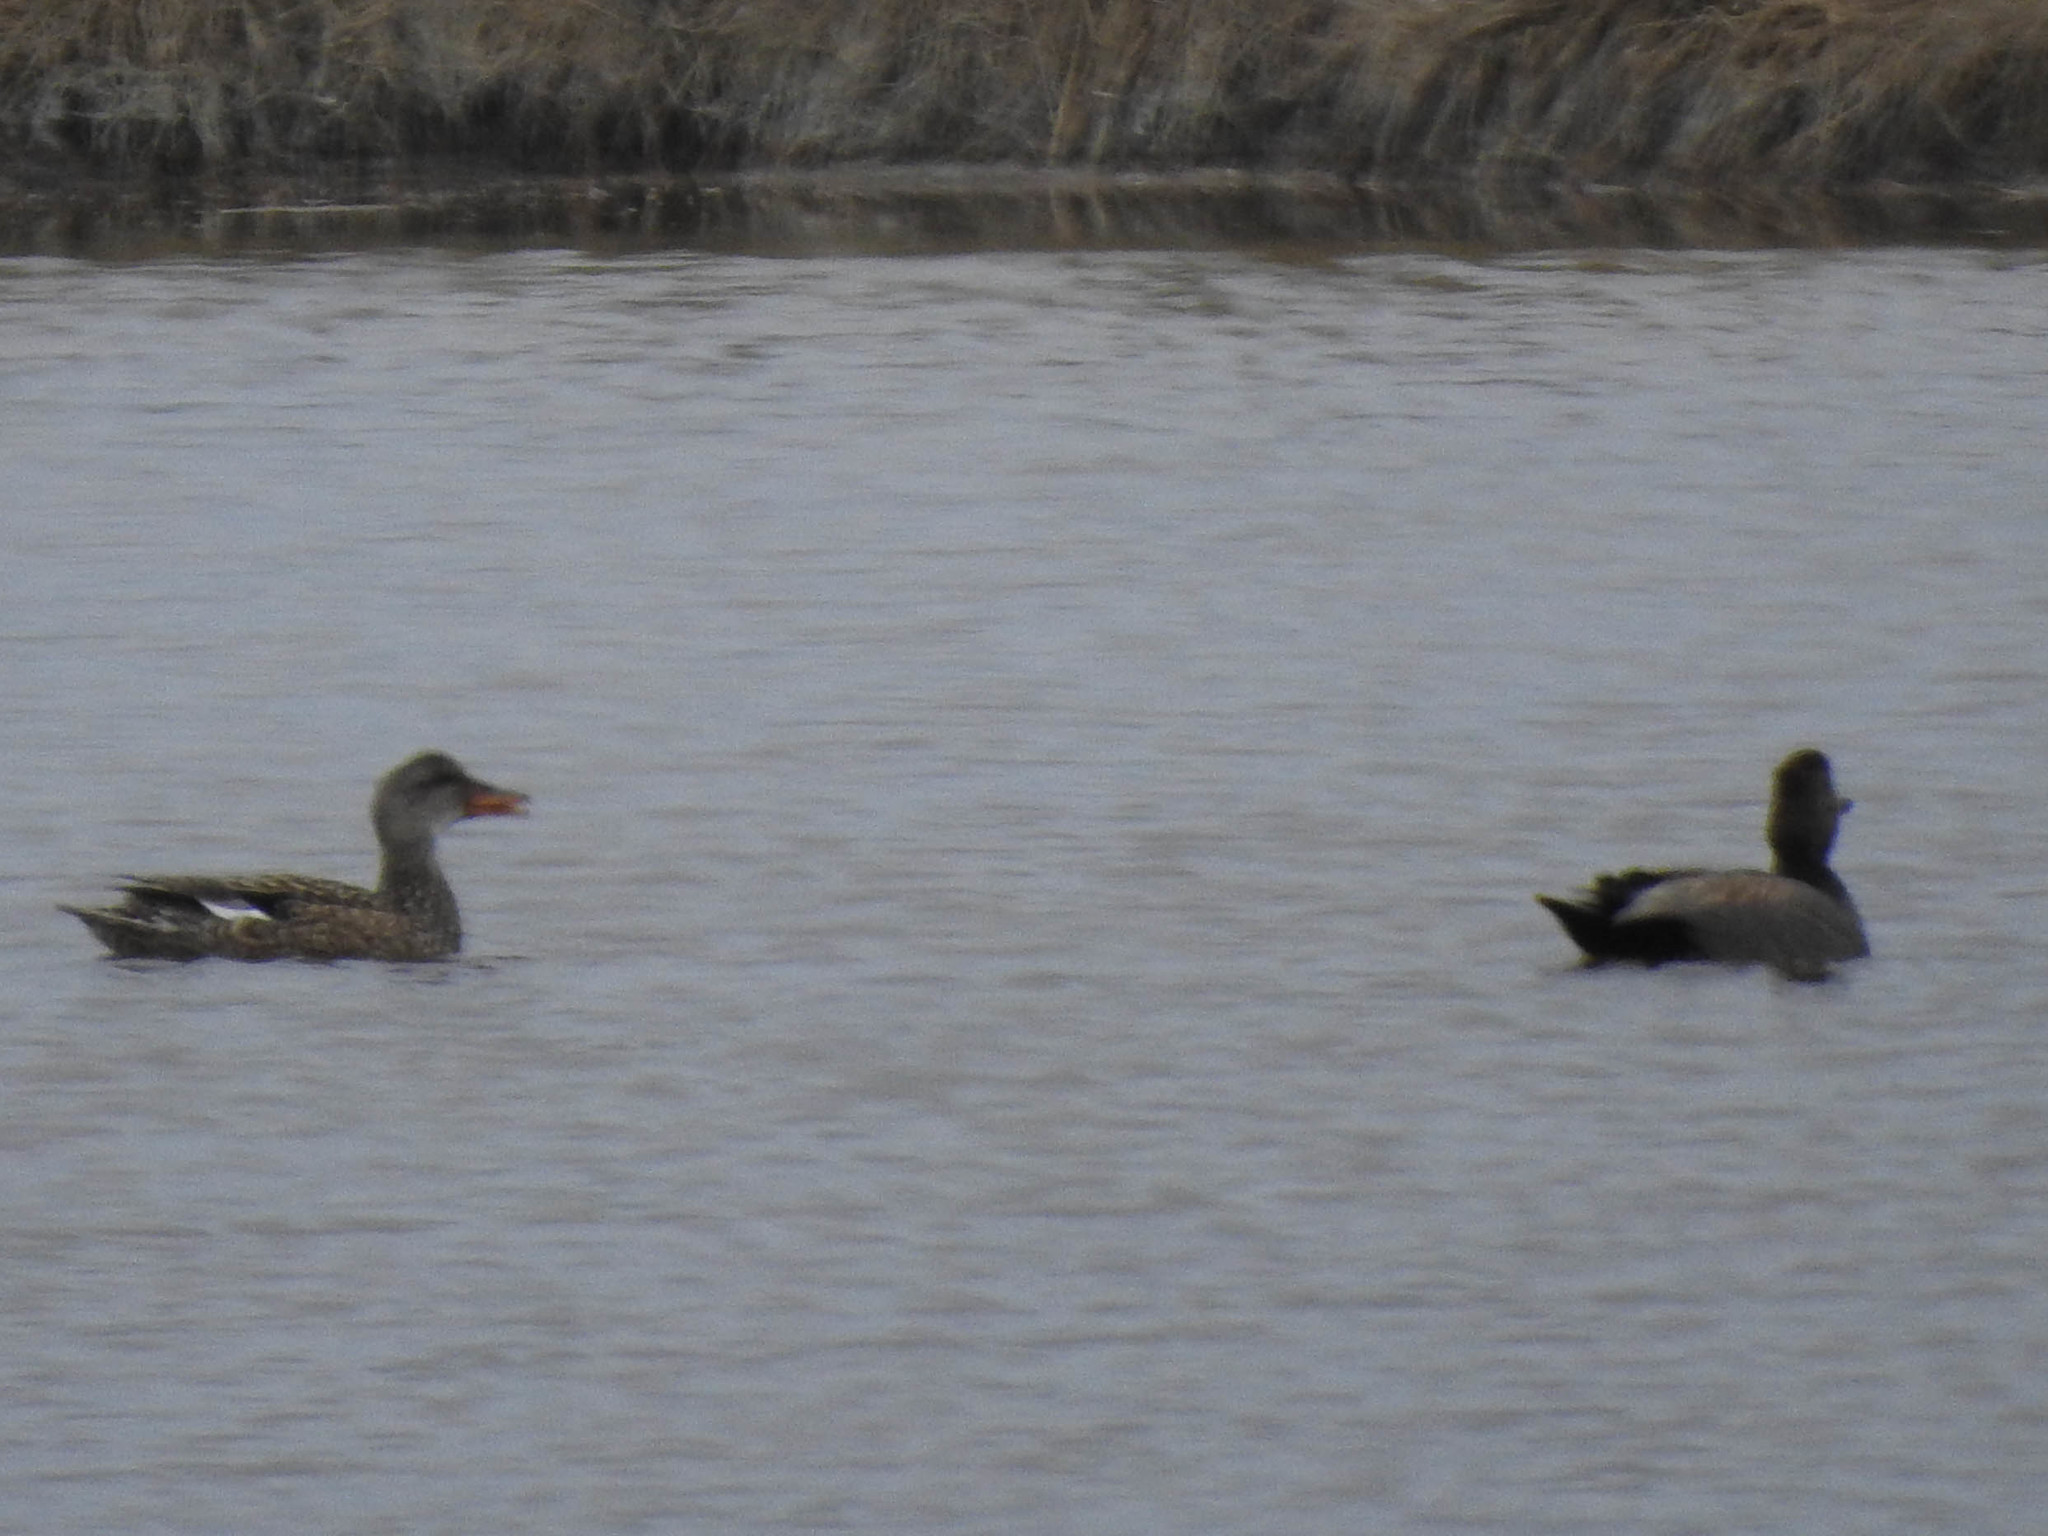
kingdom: Animalia
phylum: Chordata
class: Aves
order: Anseriformes
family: Anatidae
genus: Mareca
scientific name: Mareca strepera
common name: Gadwall
